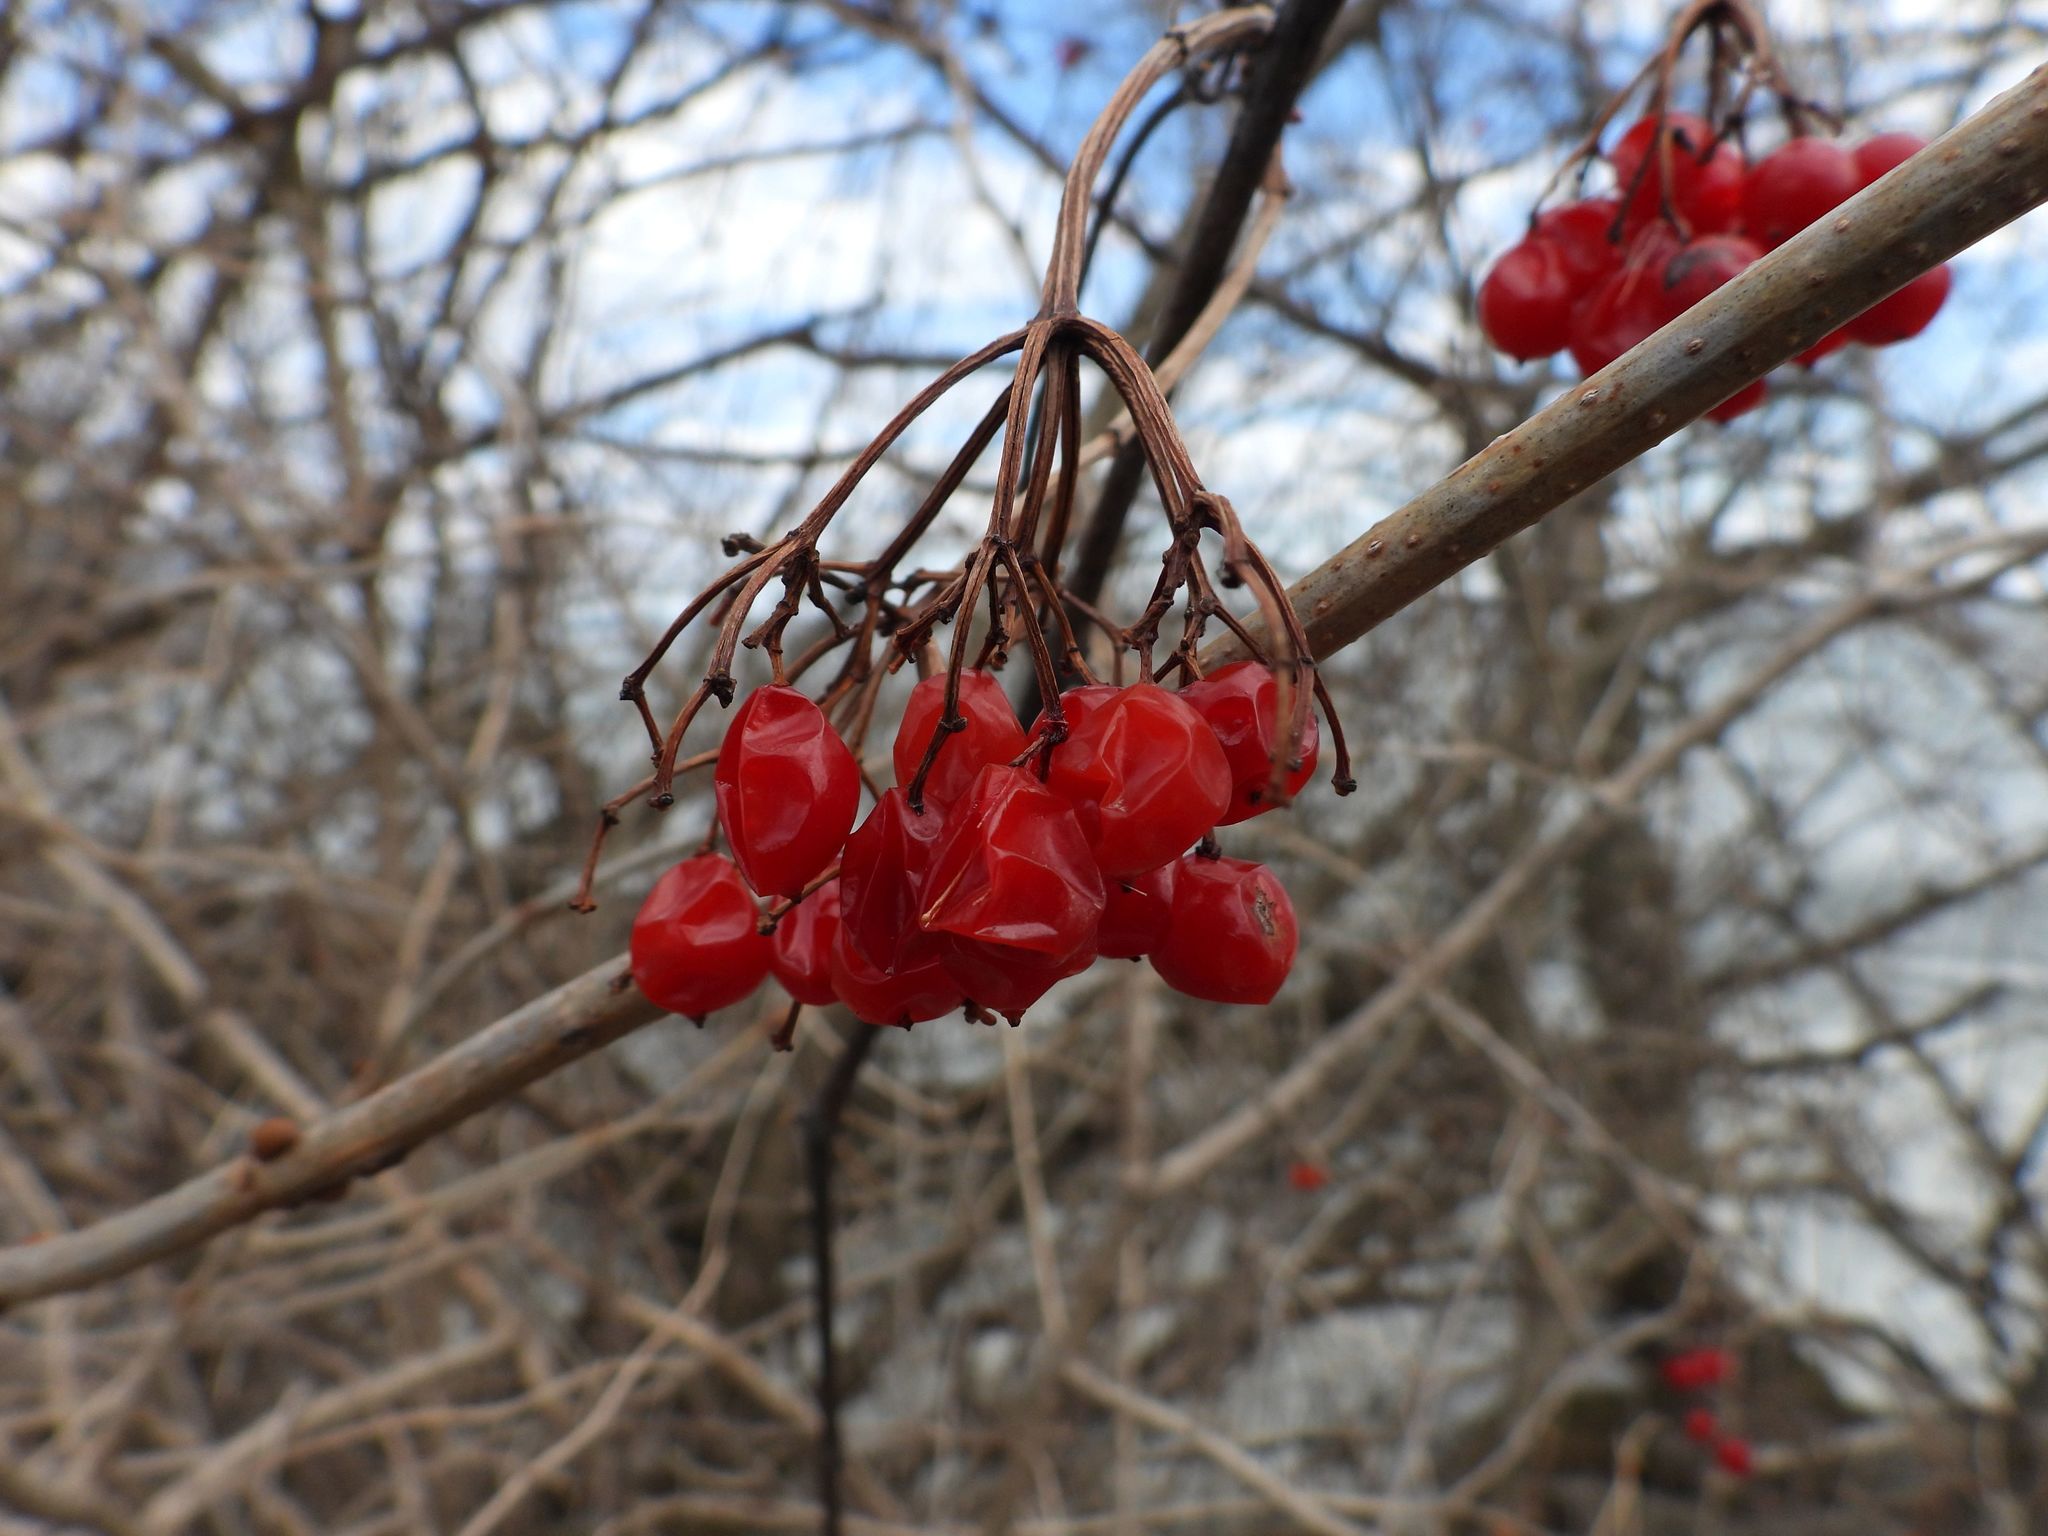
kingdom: Plantae
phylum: Tracheophyta
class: Magnoliopsida
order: Dipsacales
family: Viburnaceae
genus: Viburnum
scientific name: Viburnum opulus
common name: Guelder-rose
